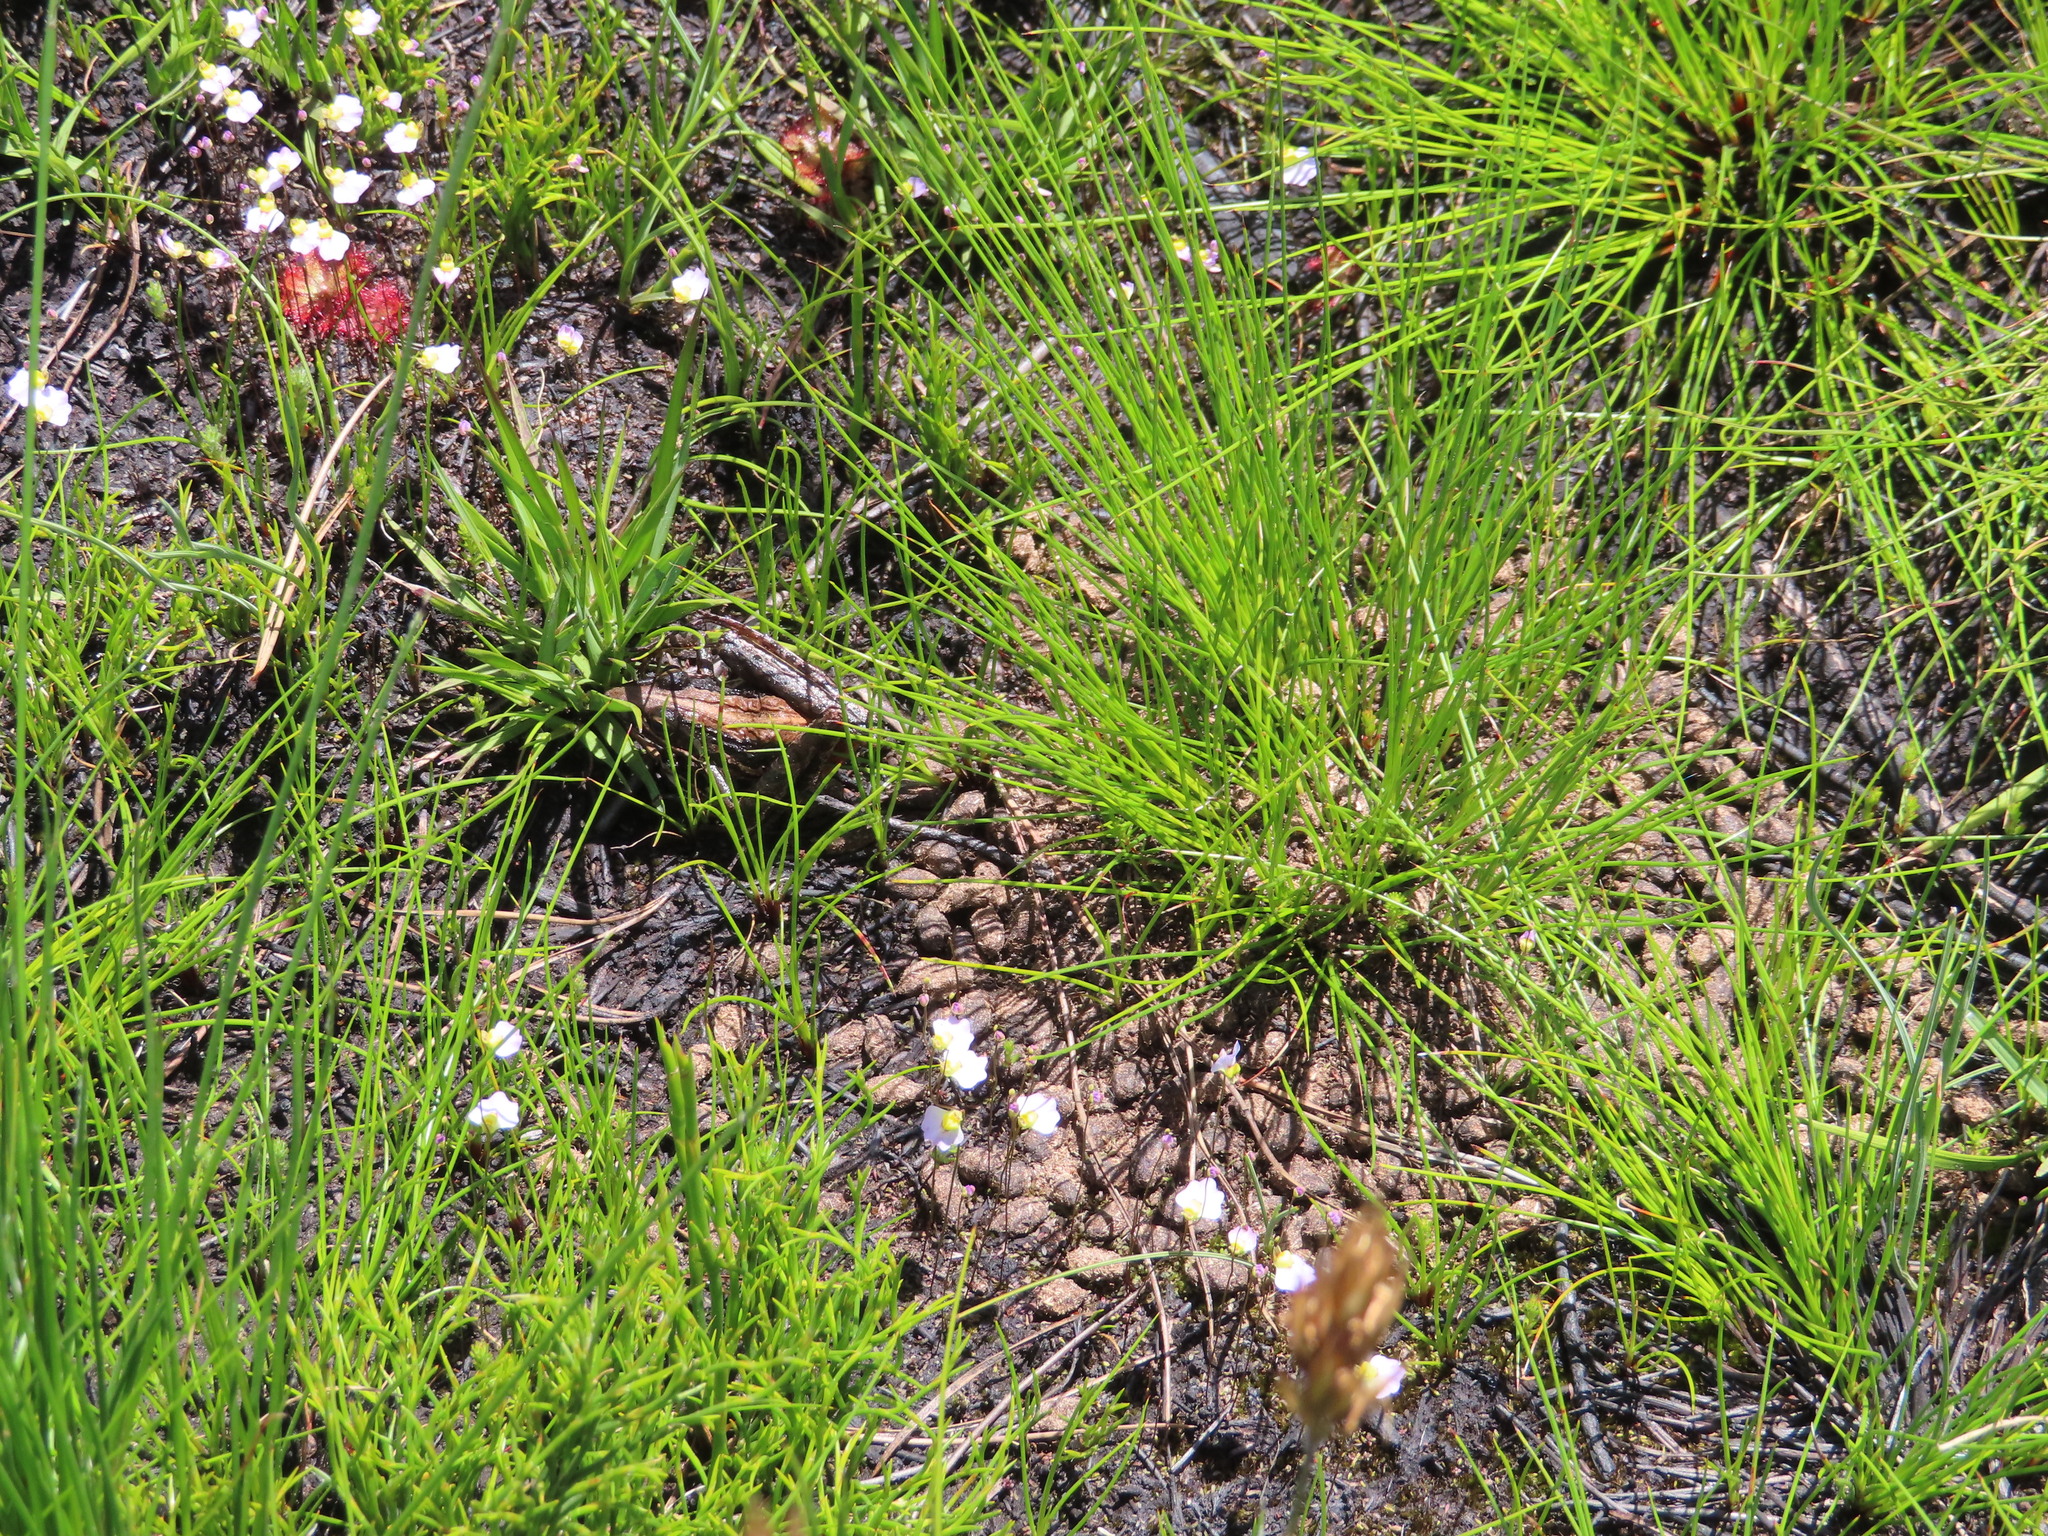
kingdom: Plantae
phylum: Tracheophyta
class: Liliopsida
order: Asparagales
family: Orchidaceae
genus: Disa
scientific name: Disa bivalvata
